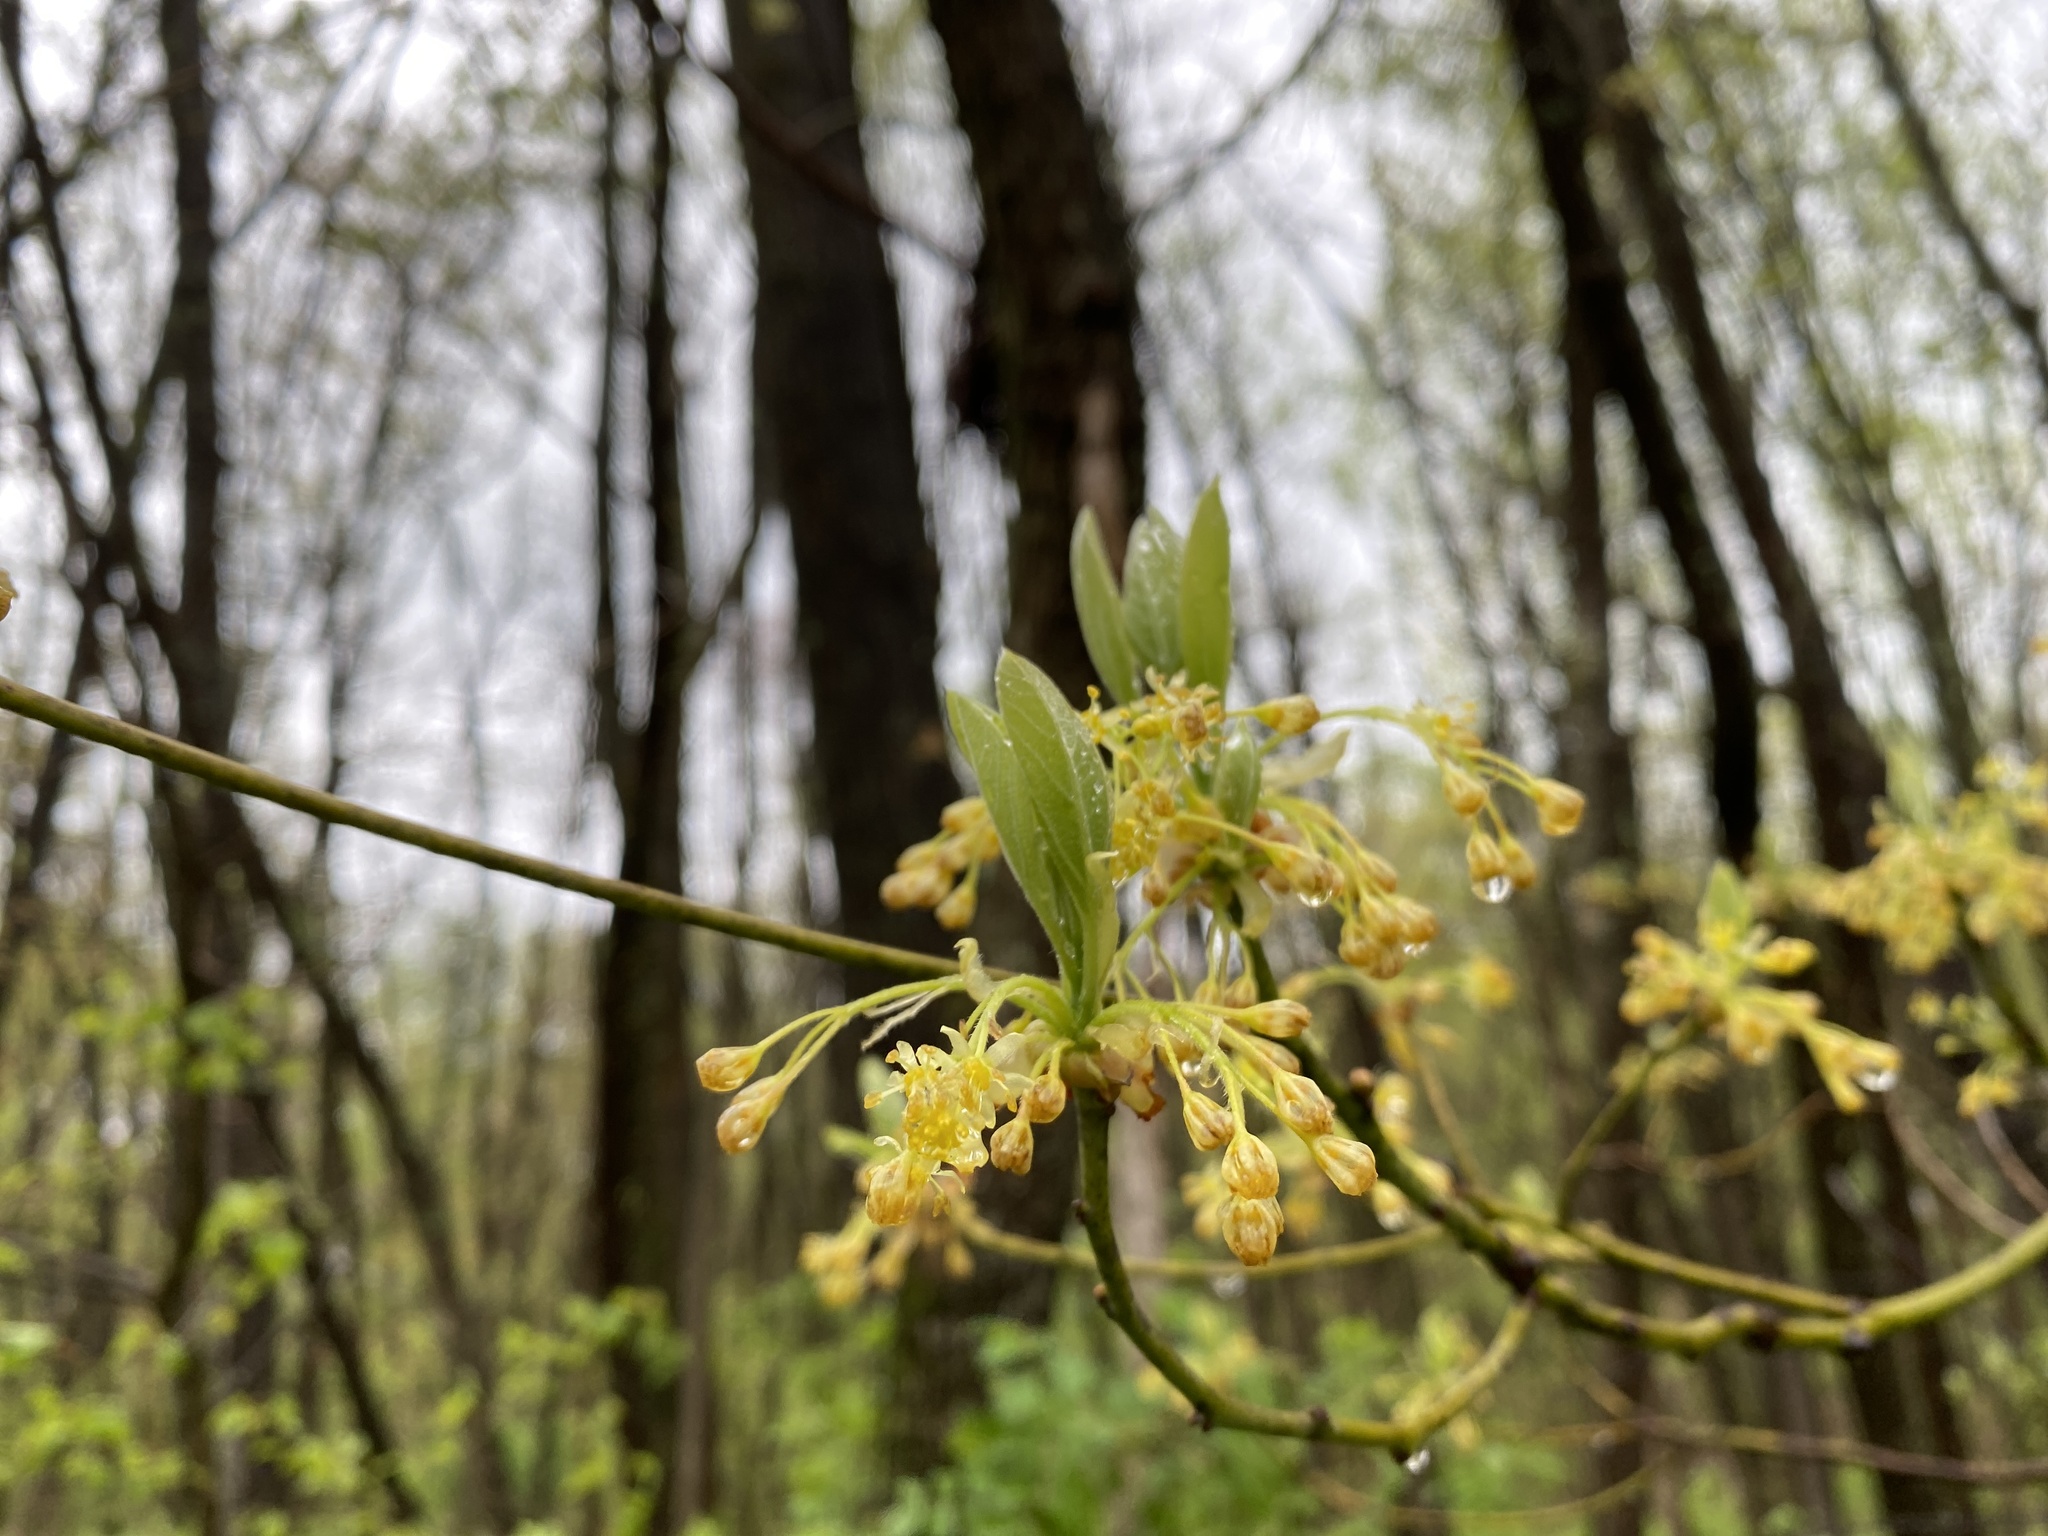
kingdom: Plantae
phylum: Tracheophyta
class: Magnoliopsida
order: Laurales
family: Lauraceae
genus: Sassafras
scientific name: Sassafras albidum
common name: Sassafras
